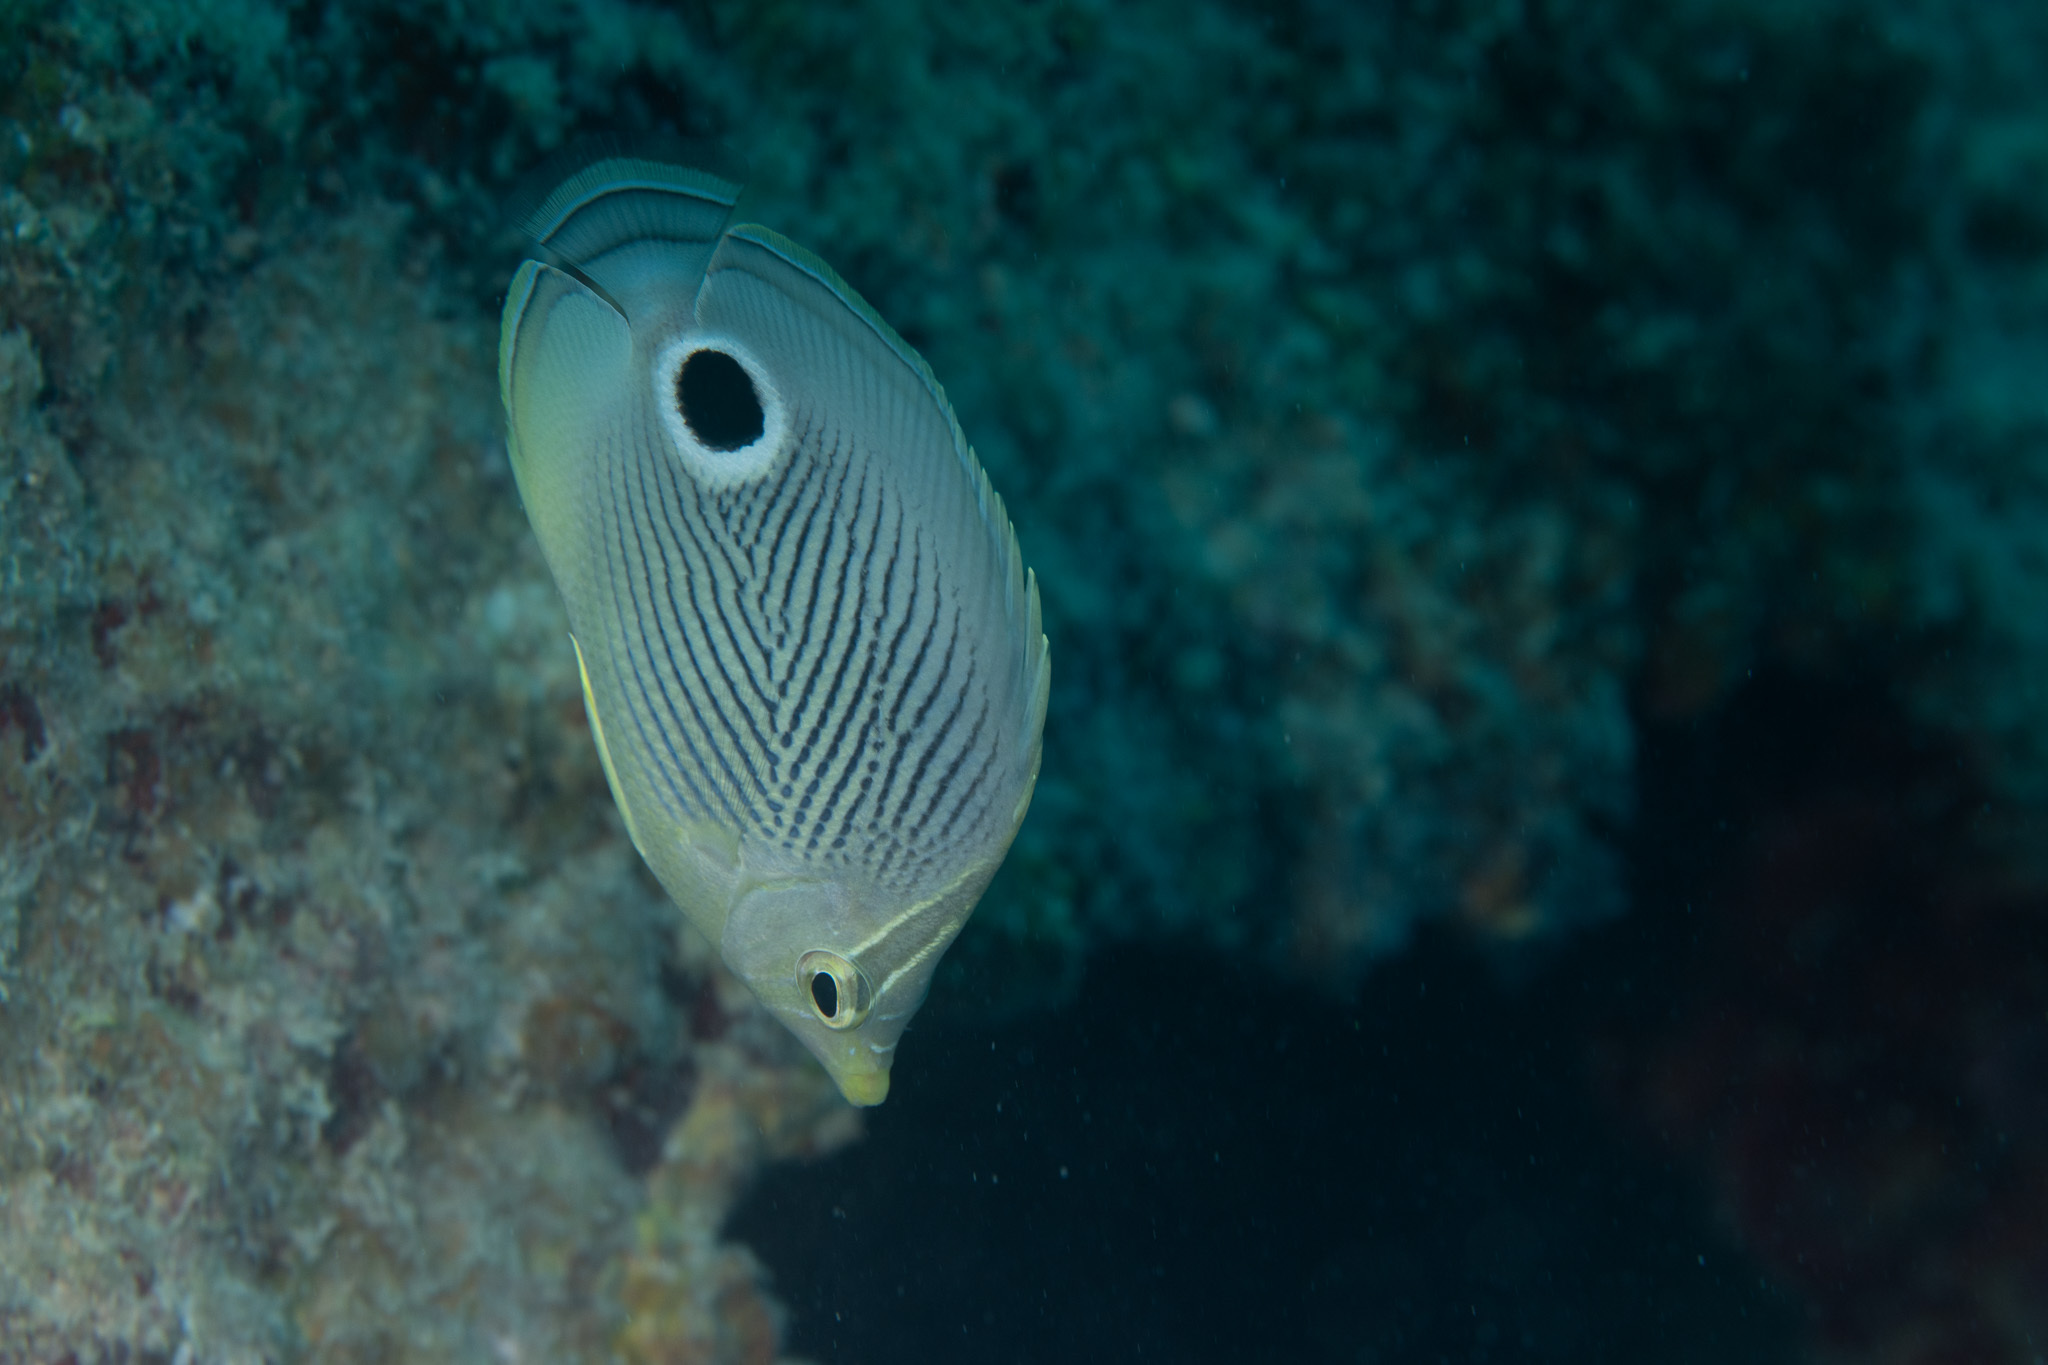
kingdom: Animalia
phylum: Chordata
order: Perciformes
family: Chaetodontidae
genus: Chaetodon
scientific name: Chaetodon capistratus
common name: Kete
